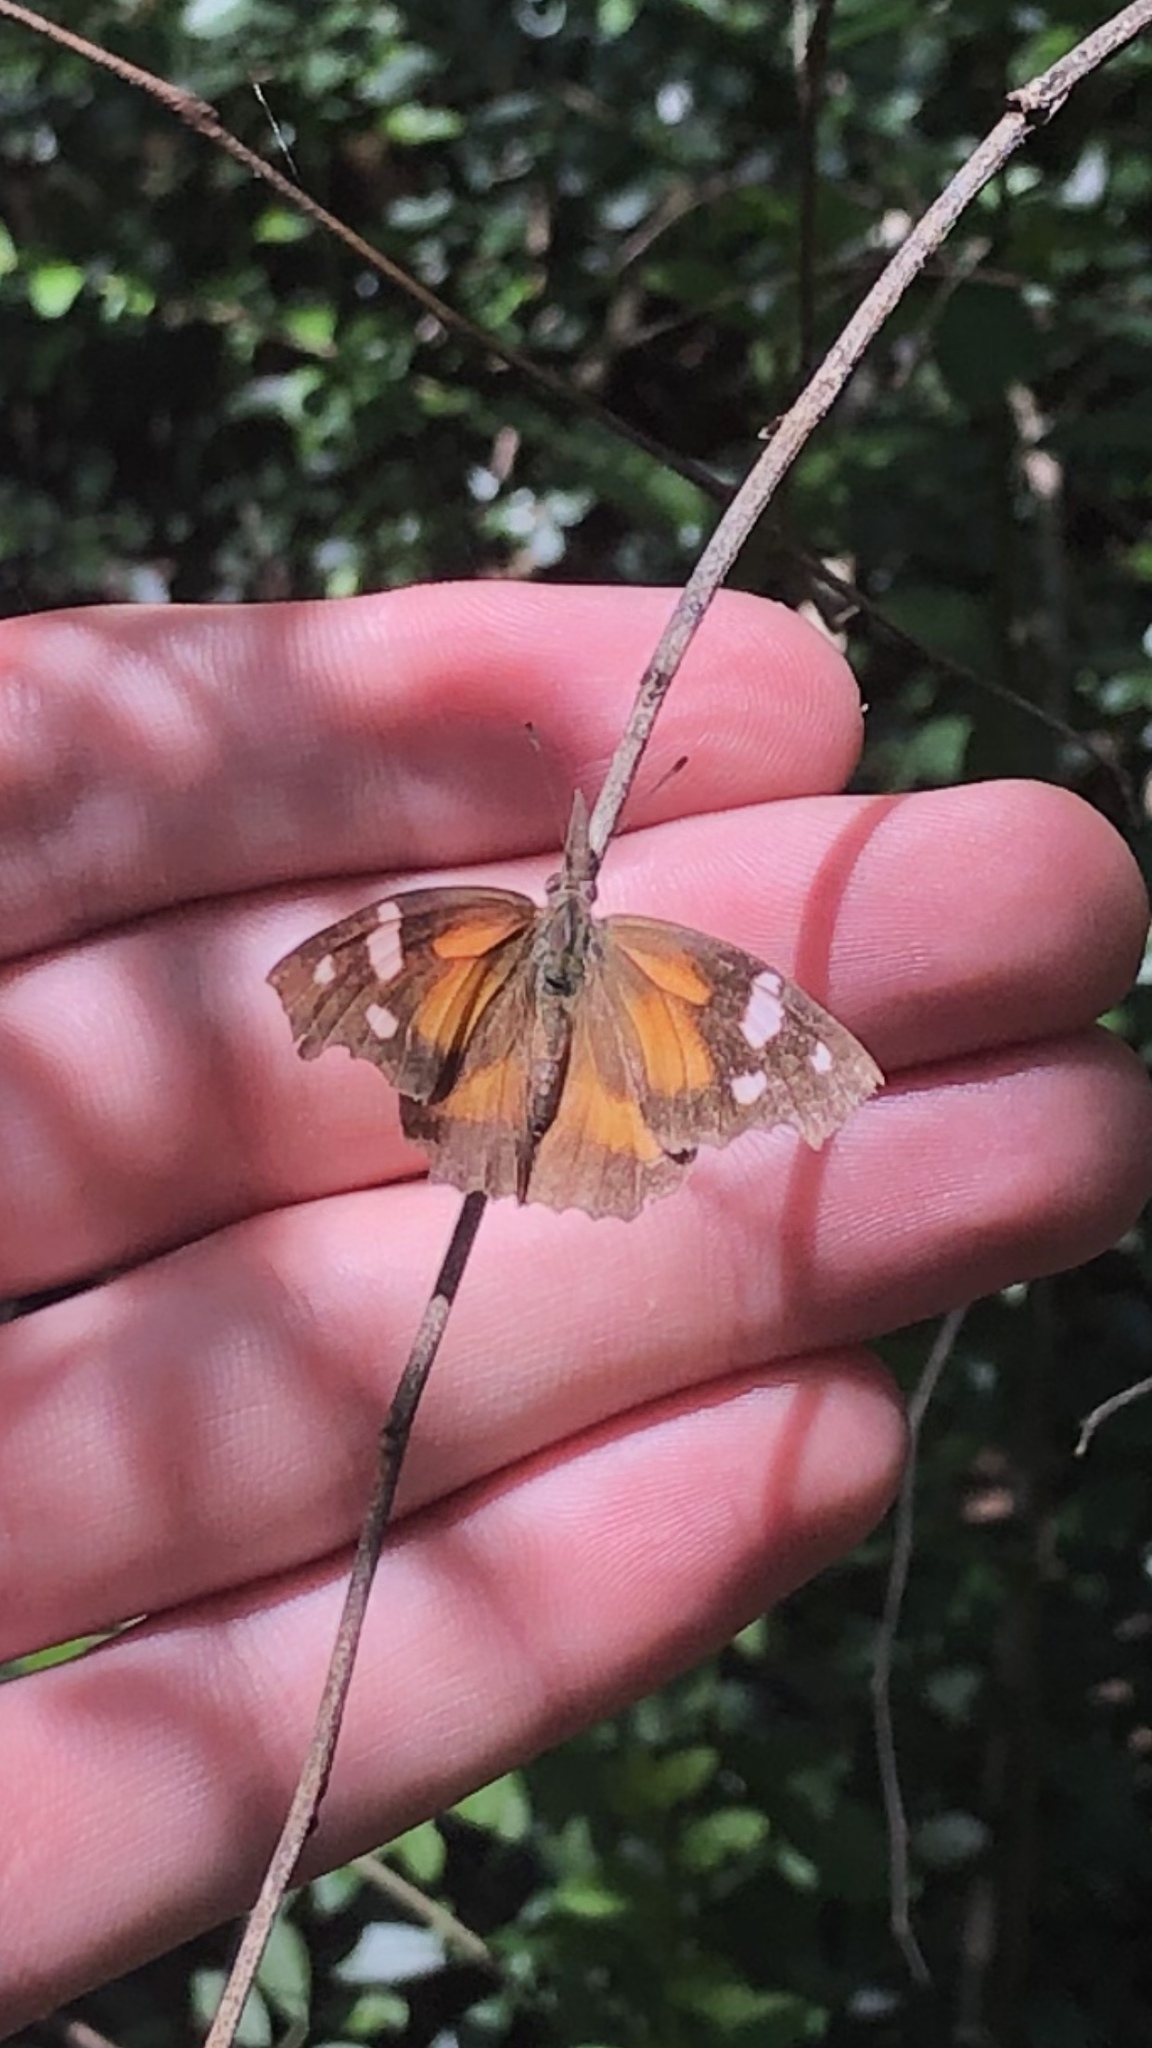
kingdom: Animalia
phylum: Arthropoda
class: Insecta
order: Lepidoptera
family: Nymphalidae
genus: Libytheana
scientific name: Libytheana carinenta
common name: American snout
